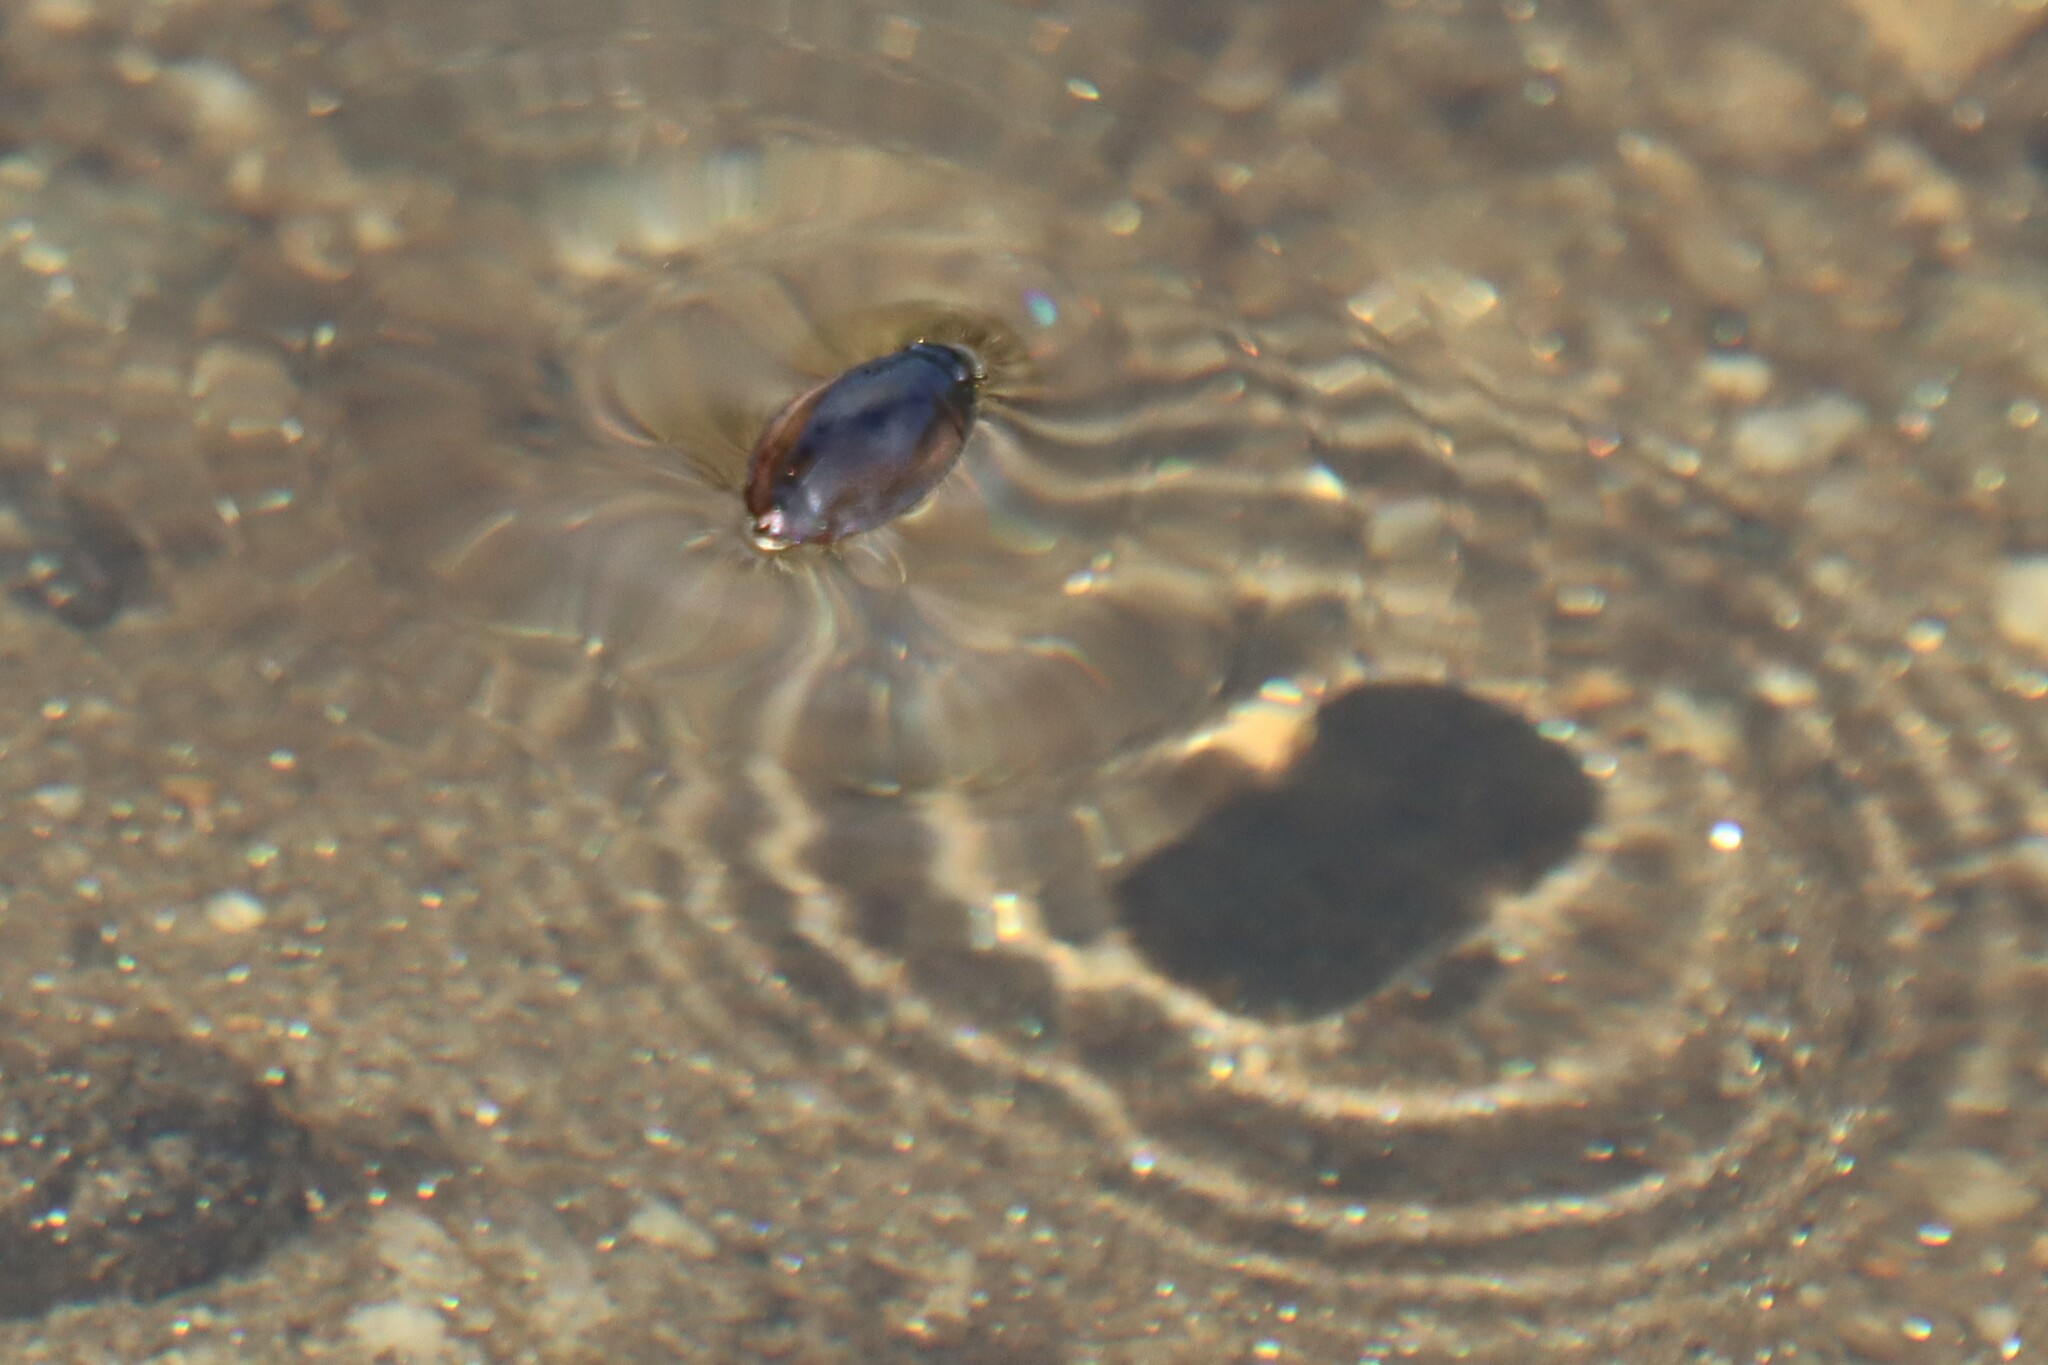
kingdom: Animalia
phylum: Arthropoda
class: Insecta
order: Coleoptera
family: Gyrinidae
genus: Dineutus
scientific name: Dineutus
